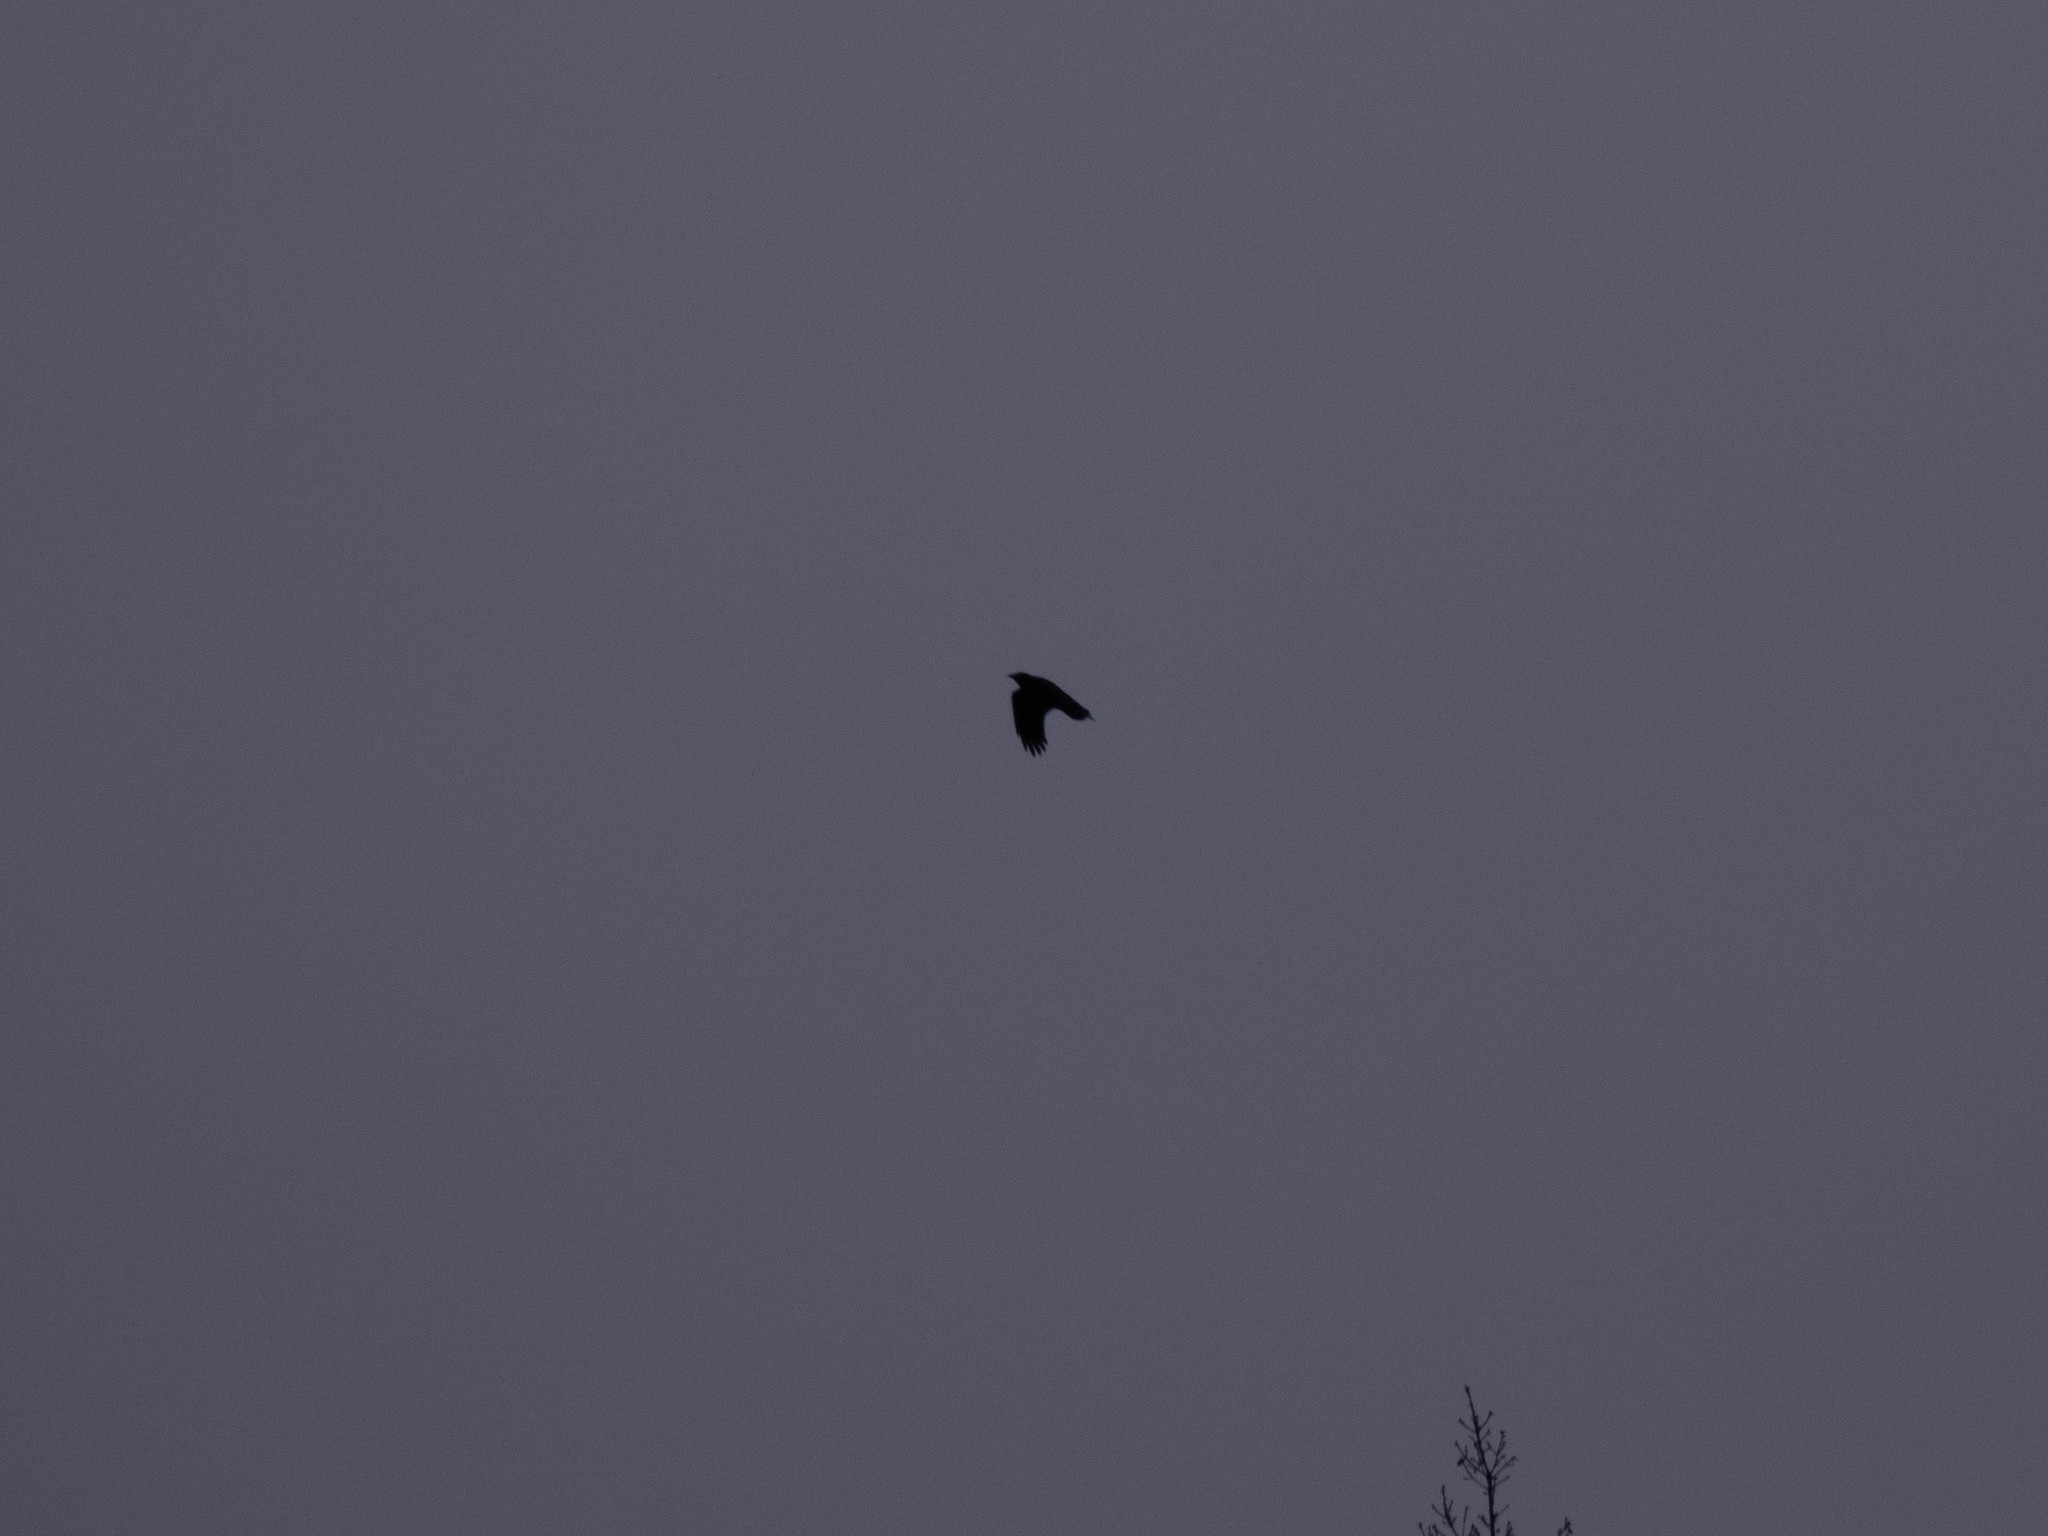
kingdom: Animalia
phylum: Chordata
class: Aves
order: Passeriformes
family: Corvidae
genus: Corvus
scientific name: Corvus brachyrhynchos
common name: American crow
